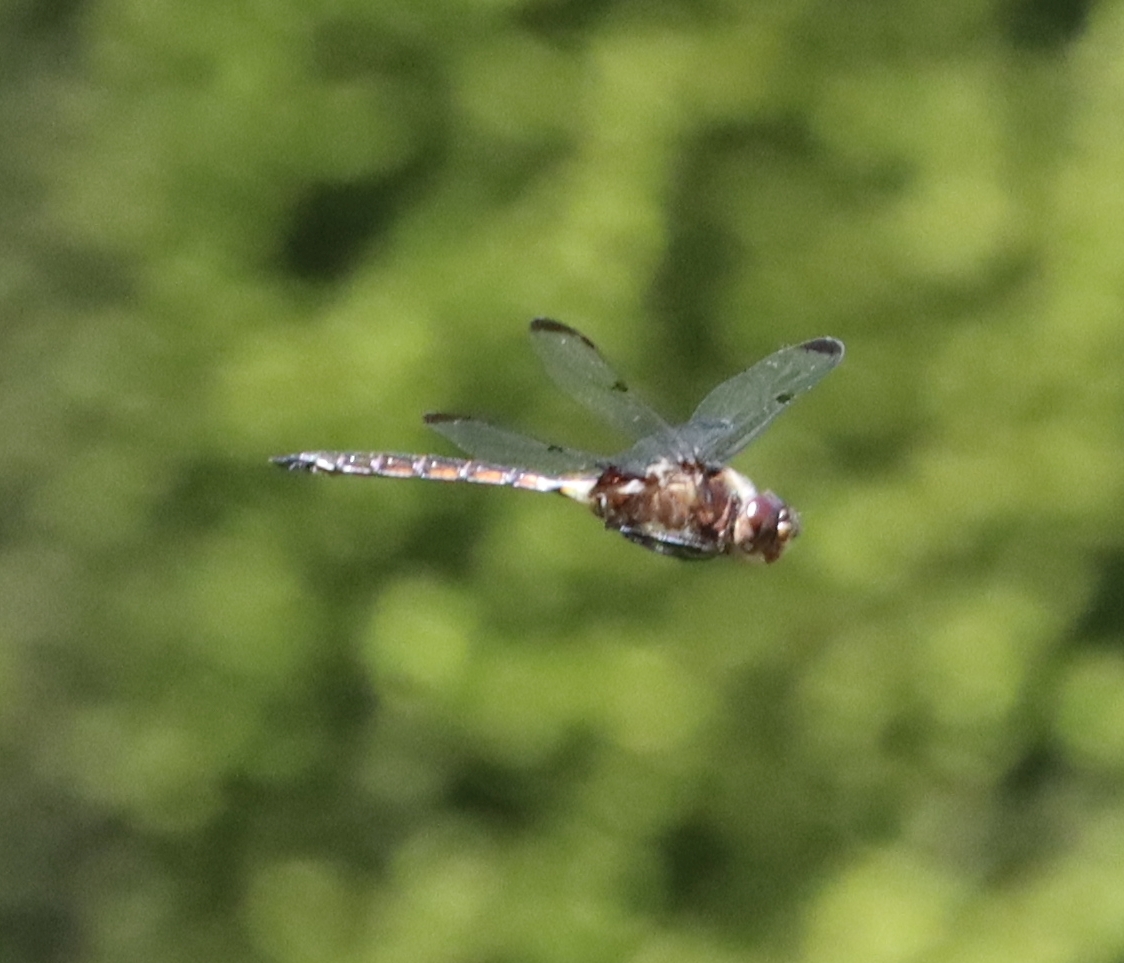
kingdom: Animalia
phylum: Arthropoda
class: Insecta
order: Odonata
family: Corduliidae
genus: Epitheca
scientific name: Epitheca princeps
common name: Prince baskettail
